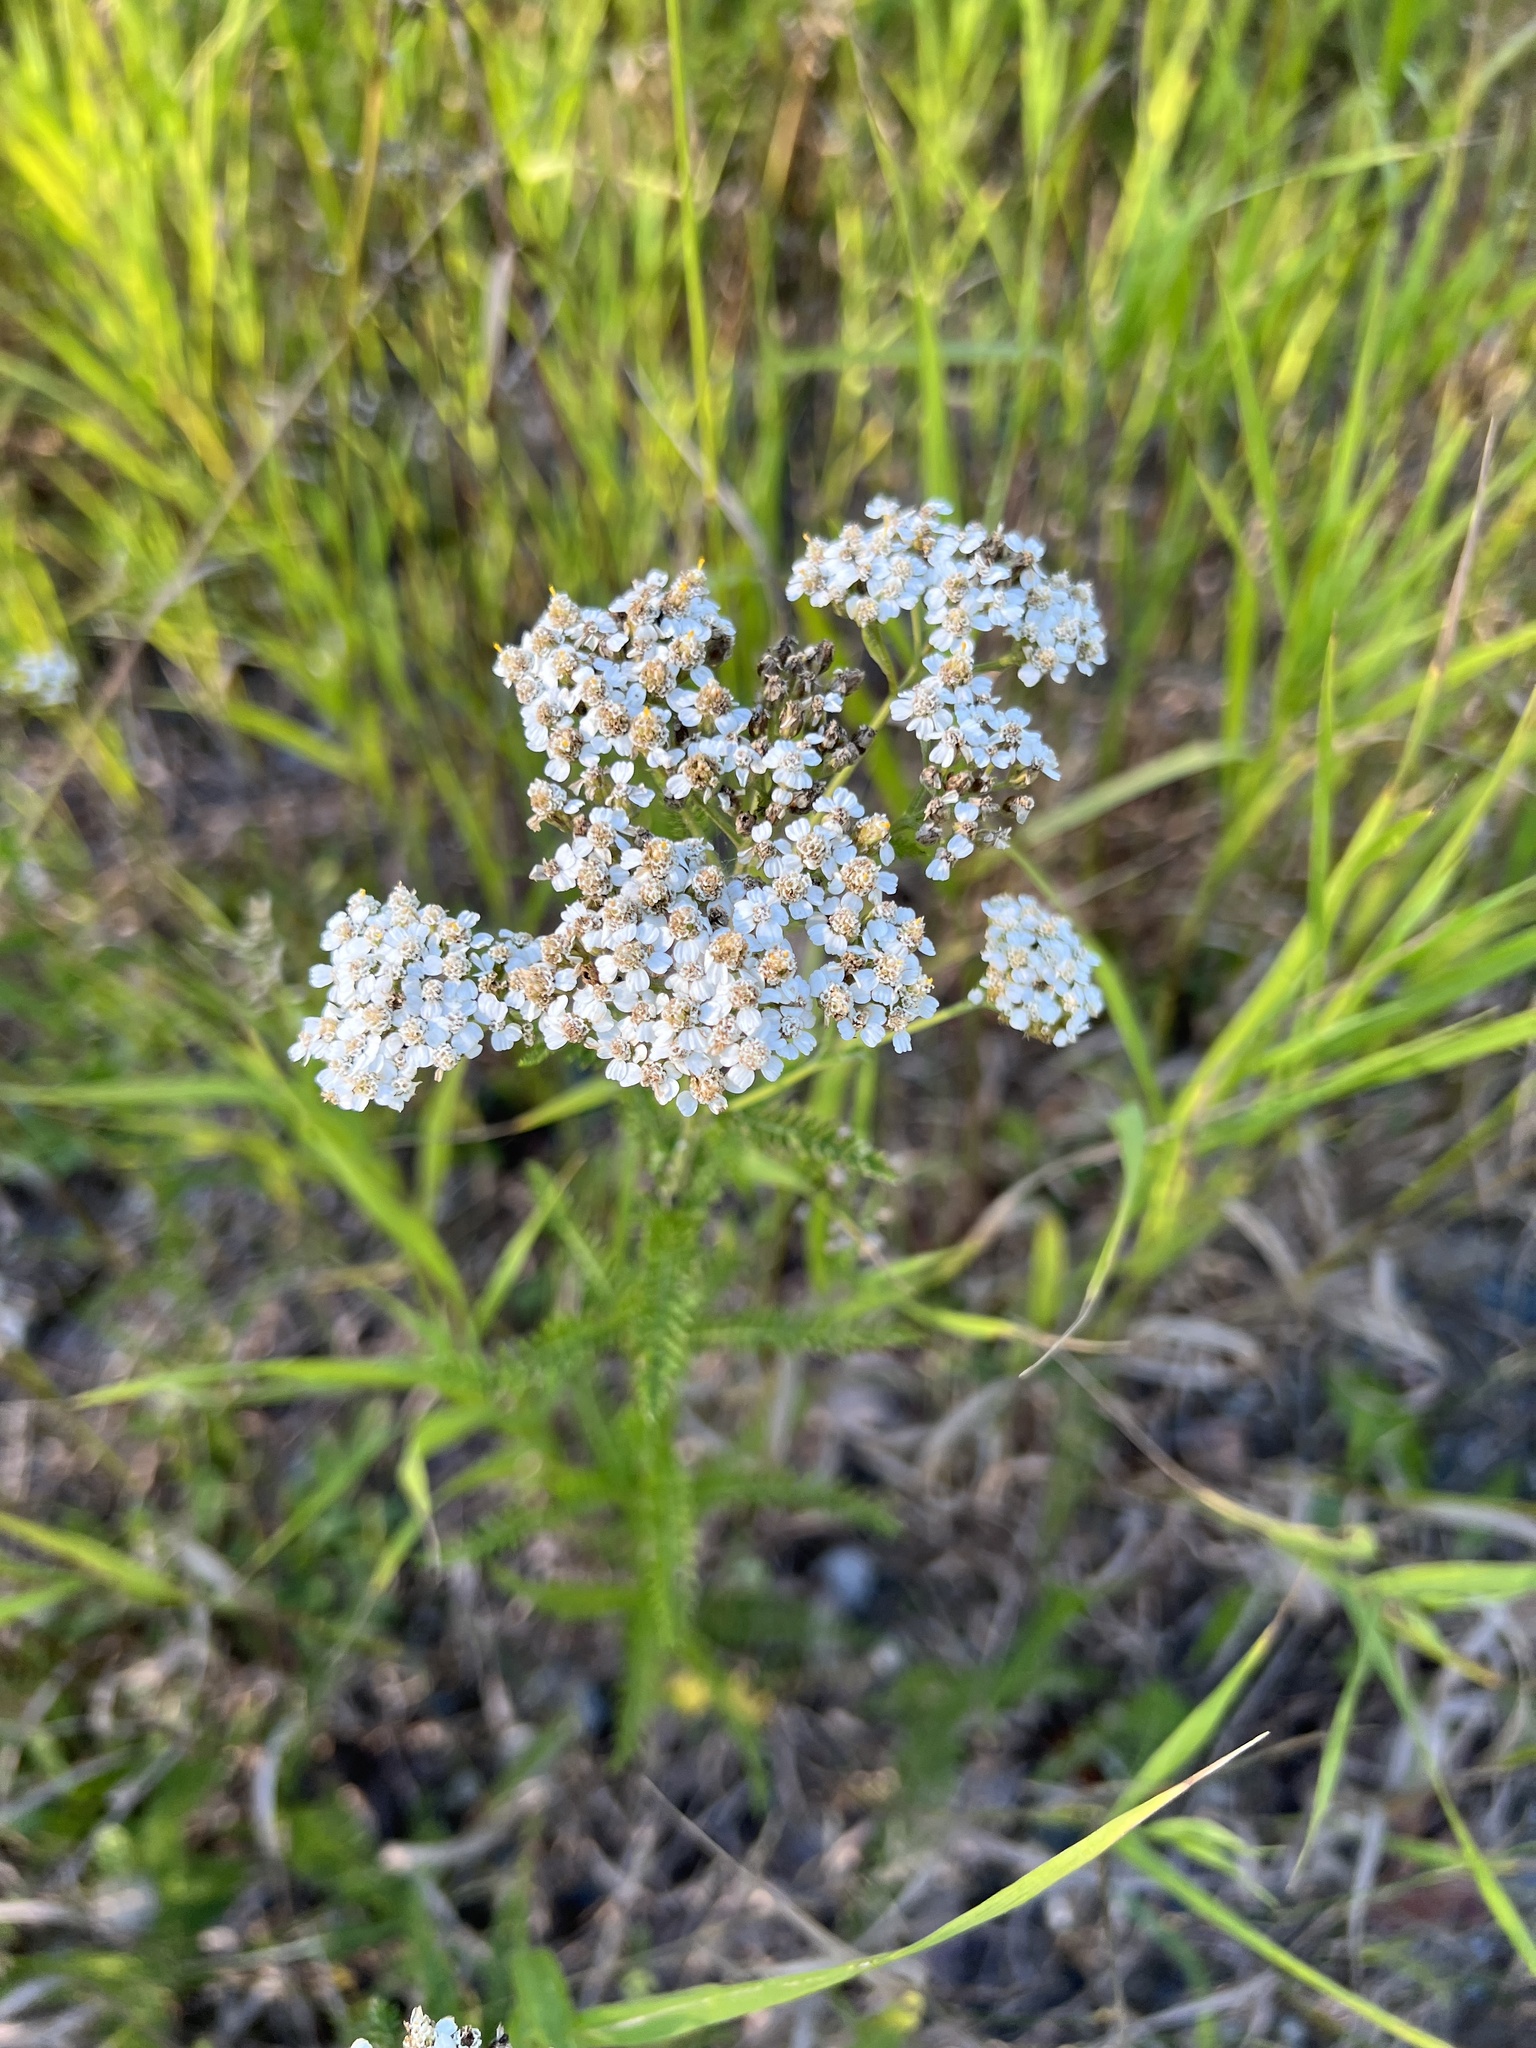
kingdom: Plantae
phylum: Tracheophyta
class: Magnoliopsida
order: Asterales
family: Asteraceae
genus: Achillea
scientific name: Achillea millefolium
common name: Yarrow
